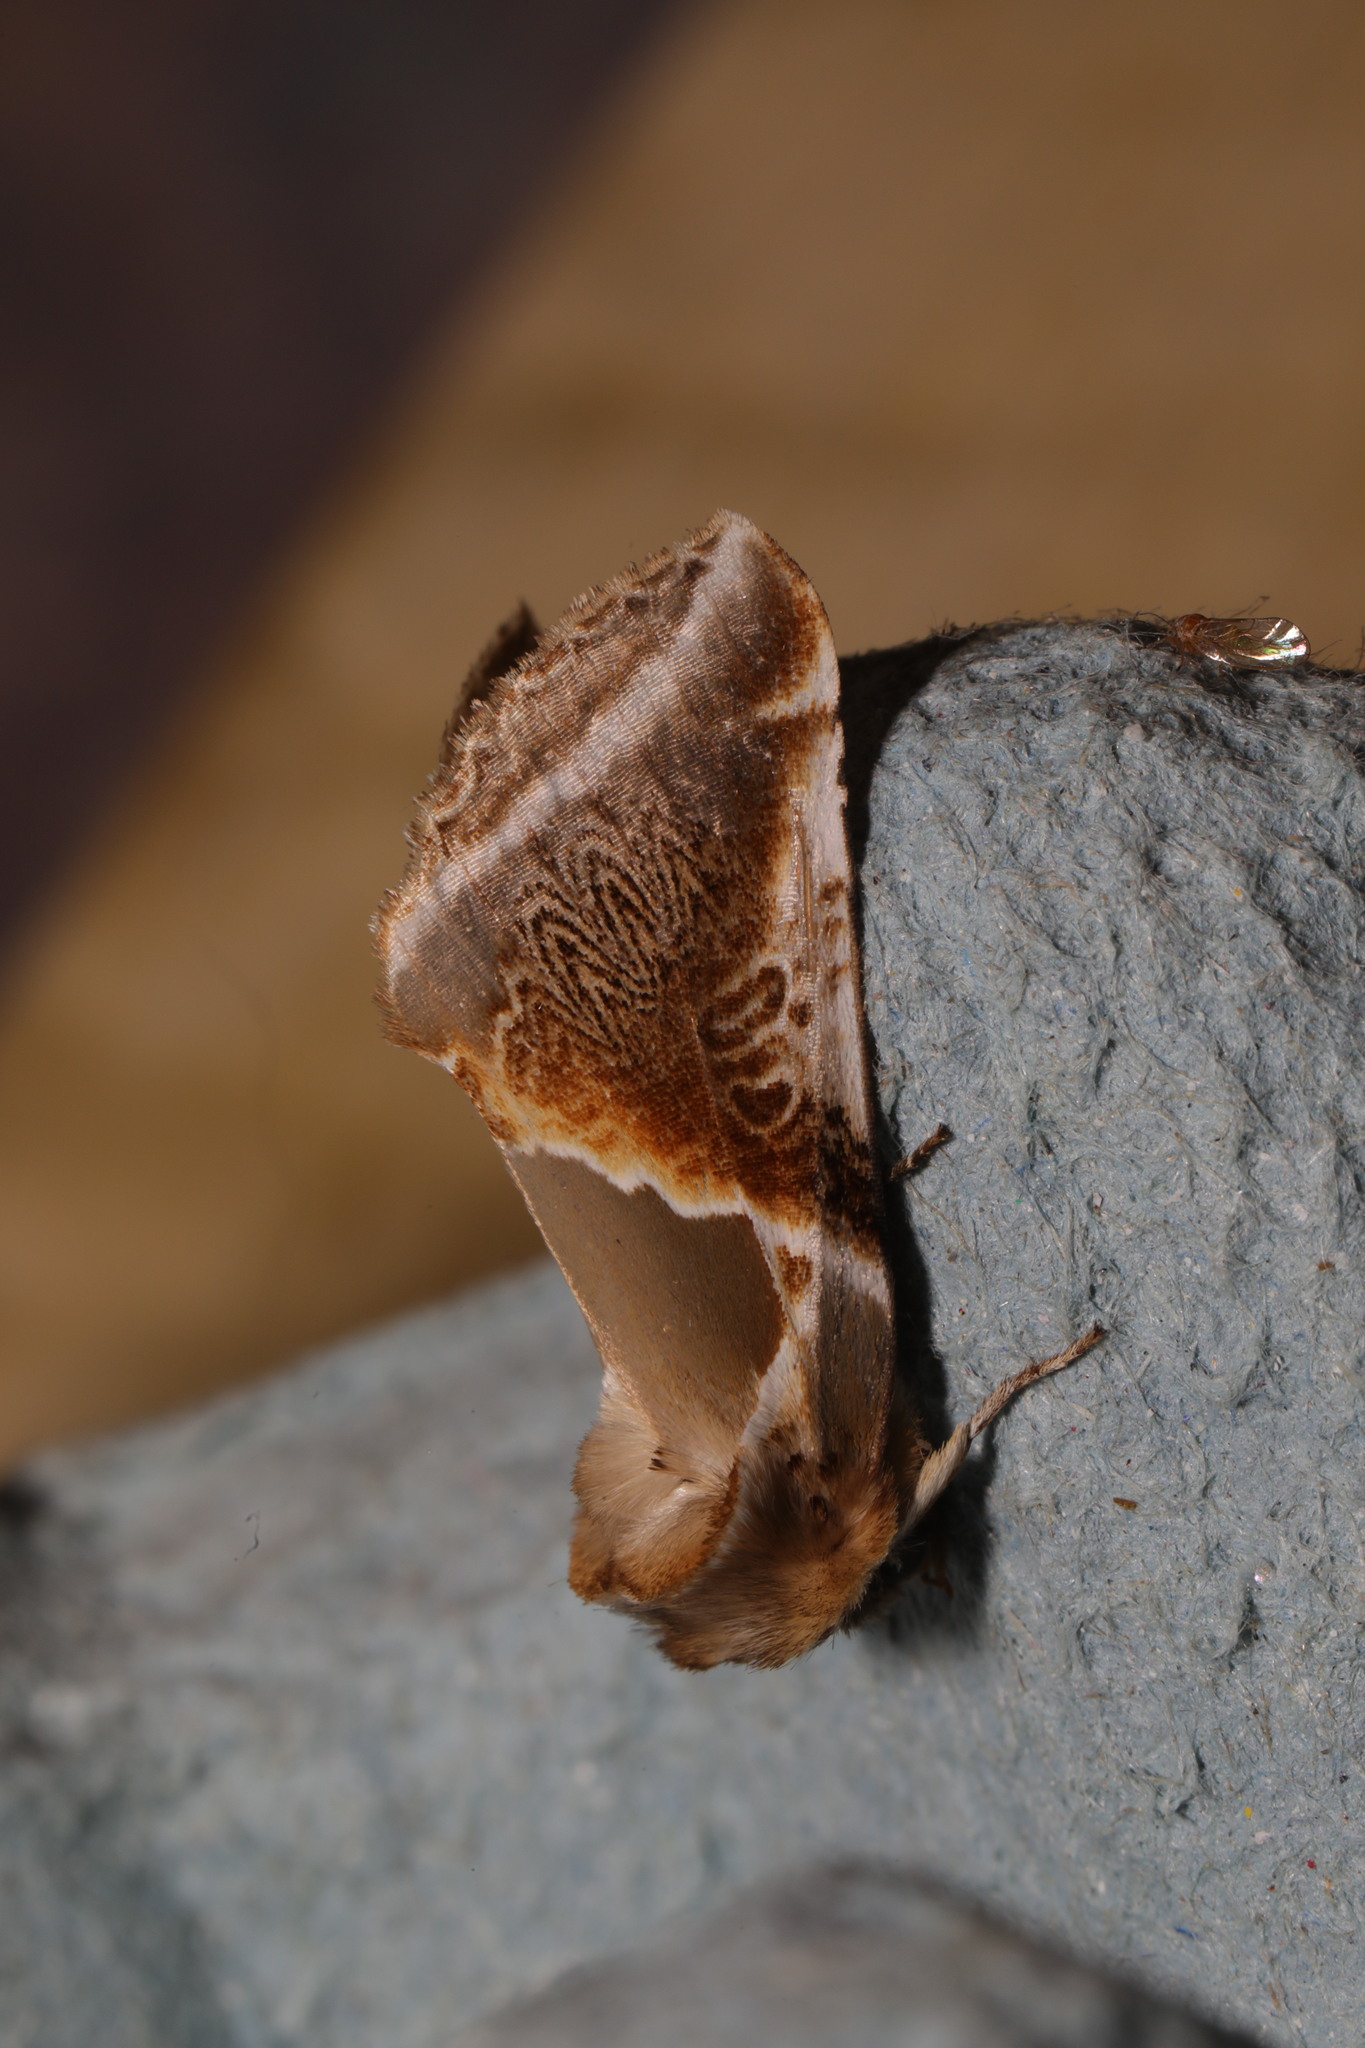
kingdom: Animalia
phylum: Arthropoda
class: Insecta
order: Lepidoptera
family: Drepanidae
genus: Habrosyne
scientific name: Habrosyne pyritoides
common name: Buff arches
